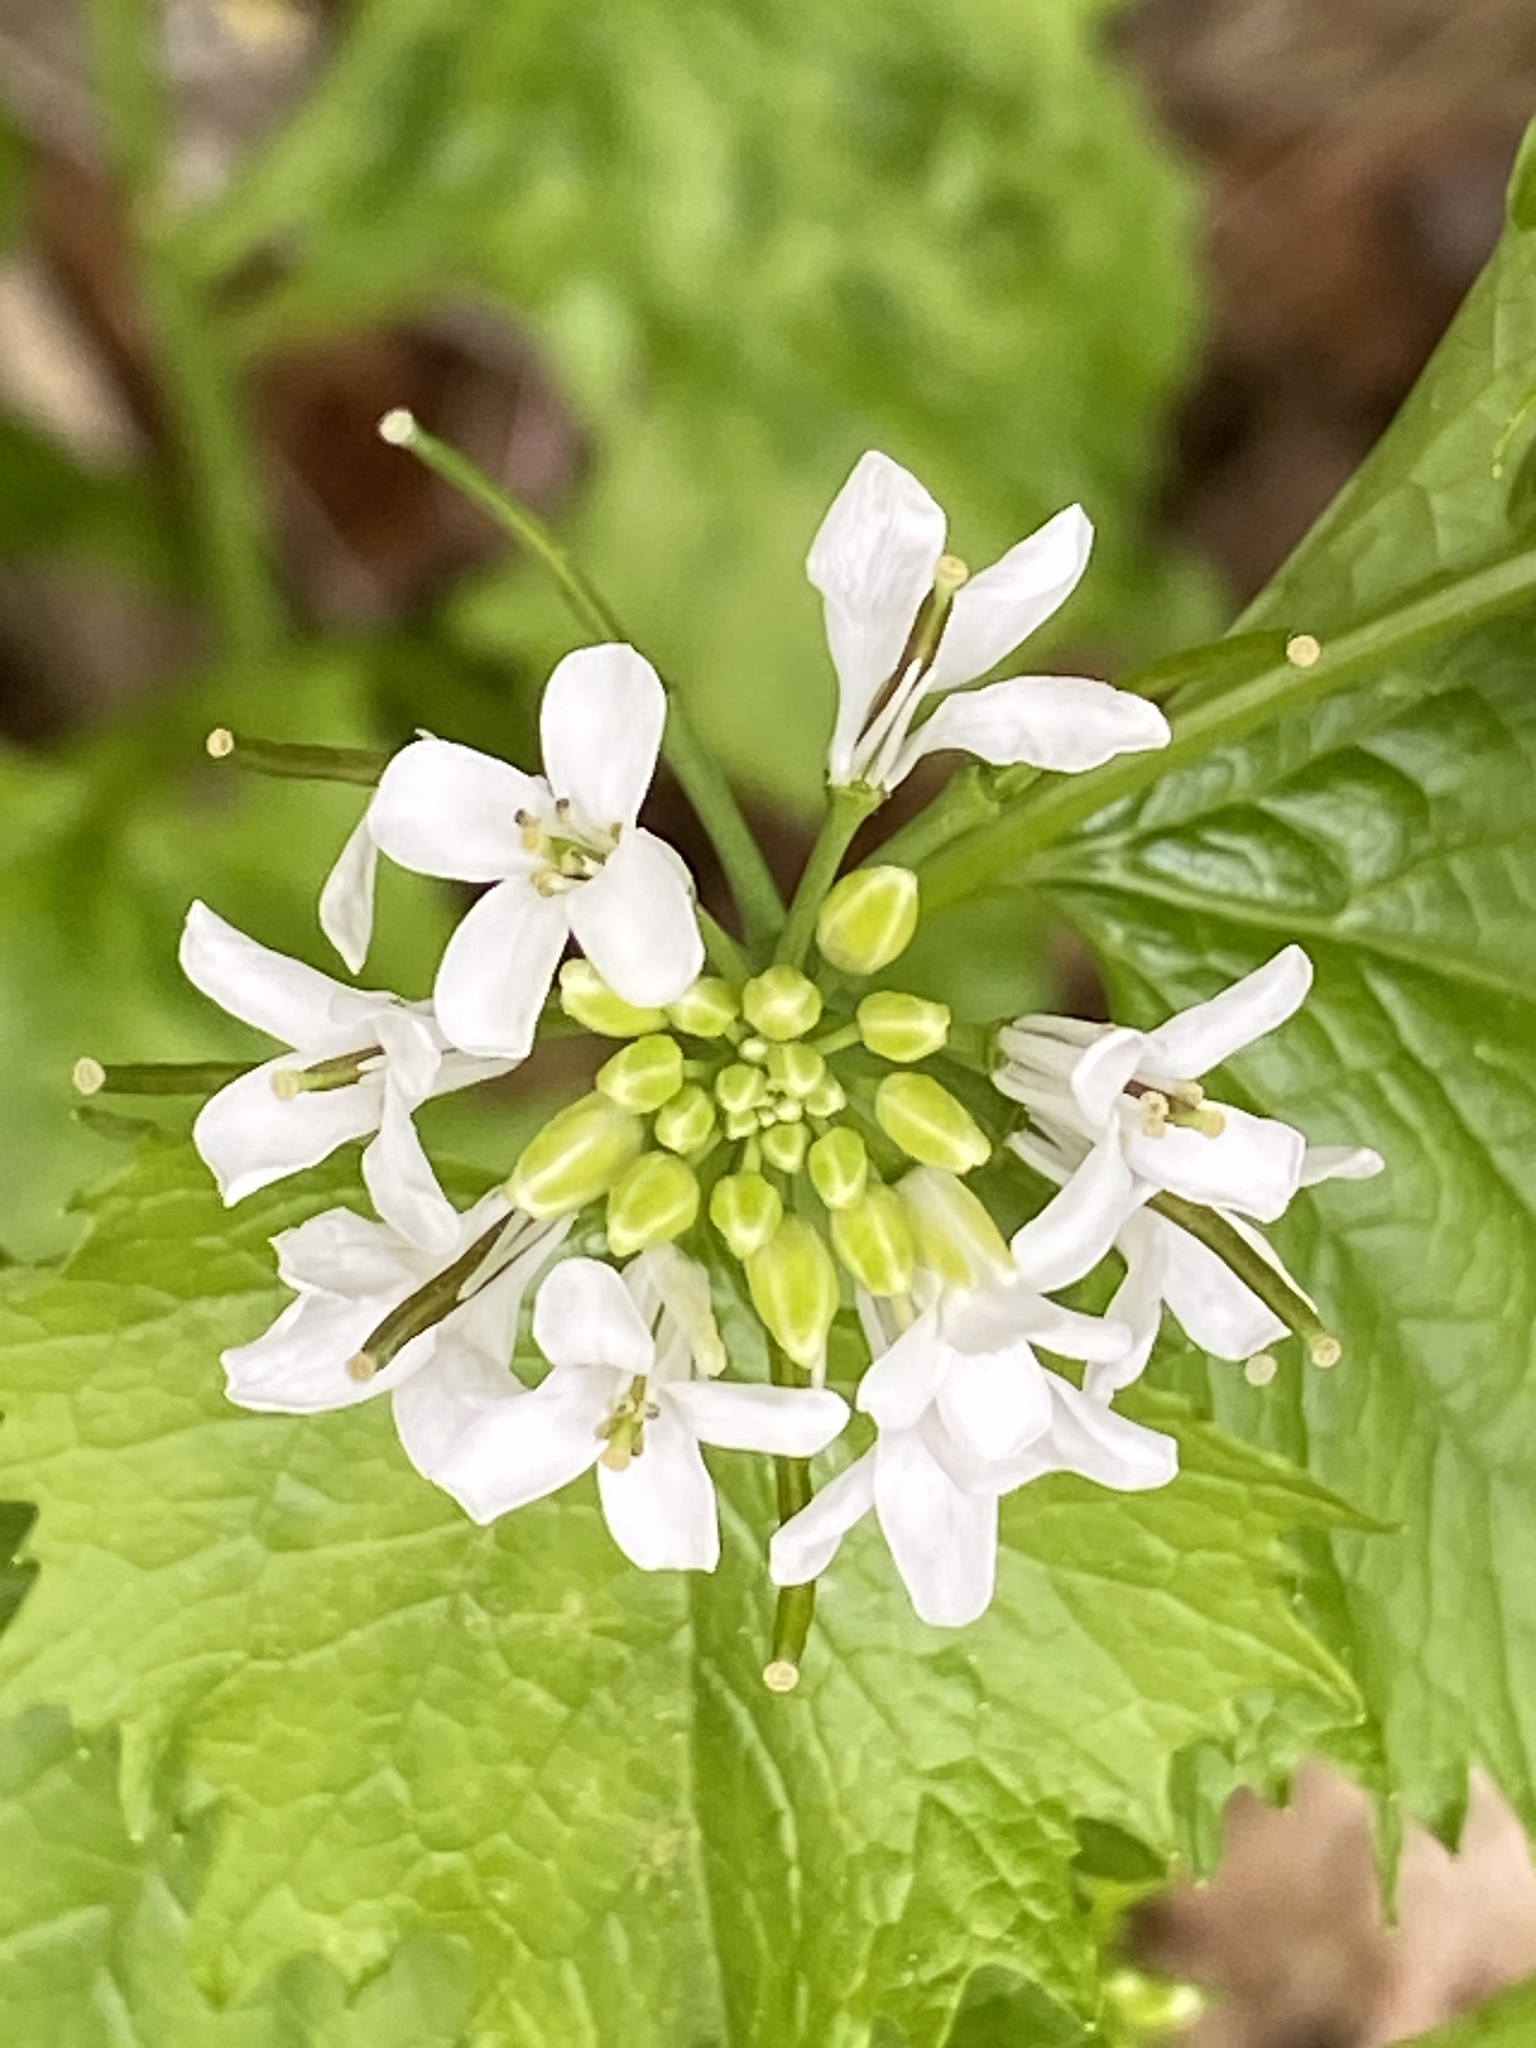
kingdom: Plantae
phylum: Tracheophyta
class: Magnoliopsida
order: Brassicales
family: Brassicaceae
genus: Alliaria
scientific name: Alliaria petiolata
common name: Garlic mustard
